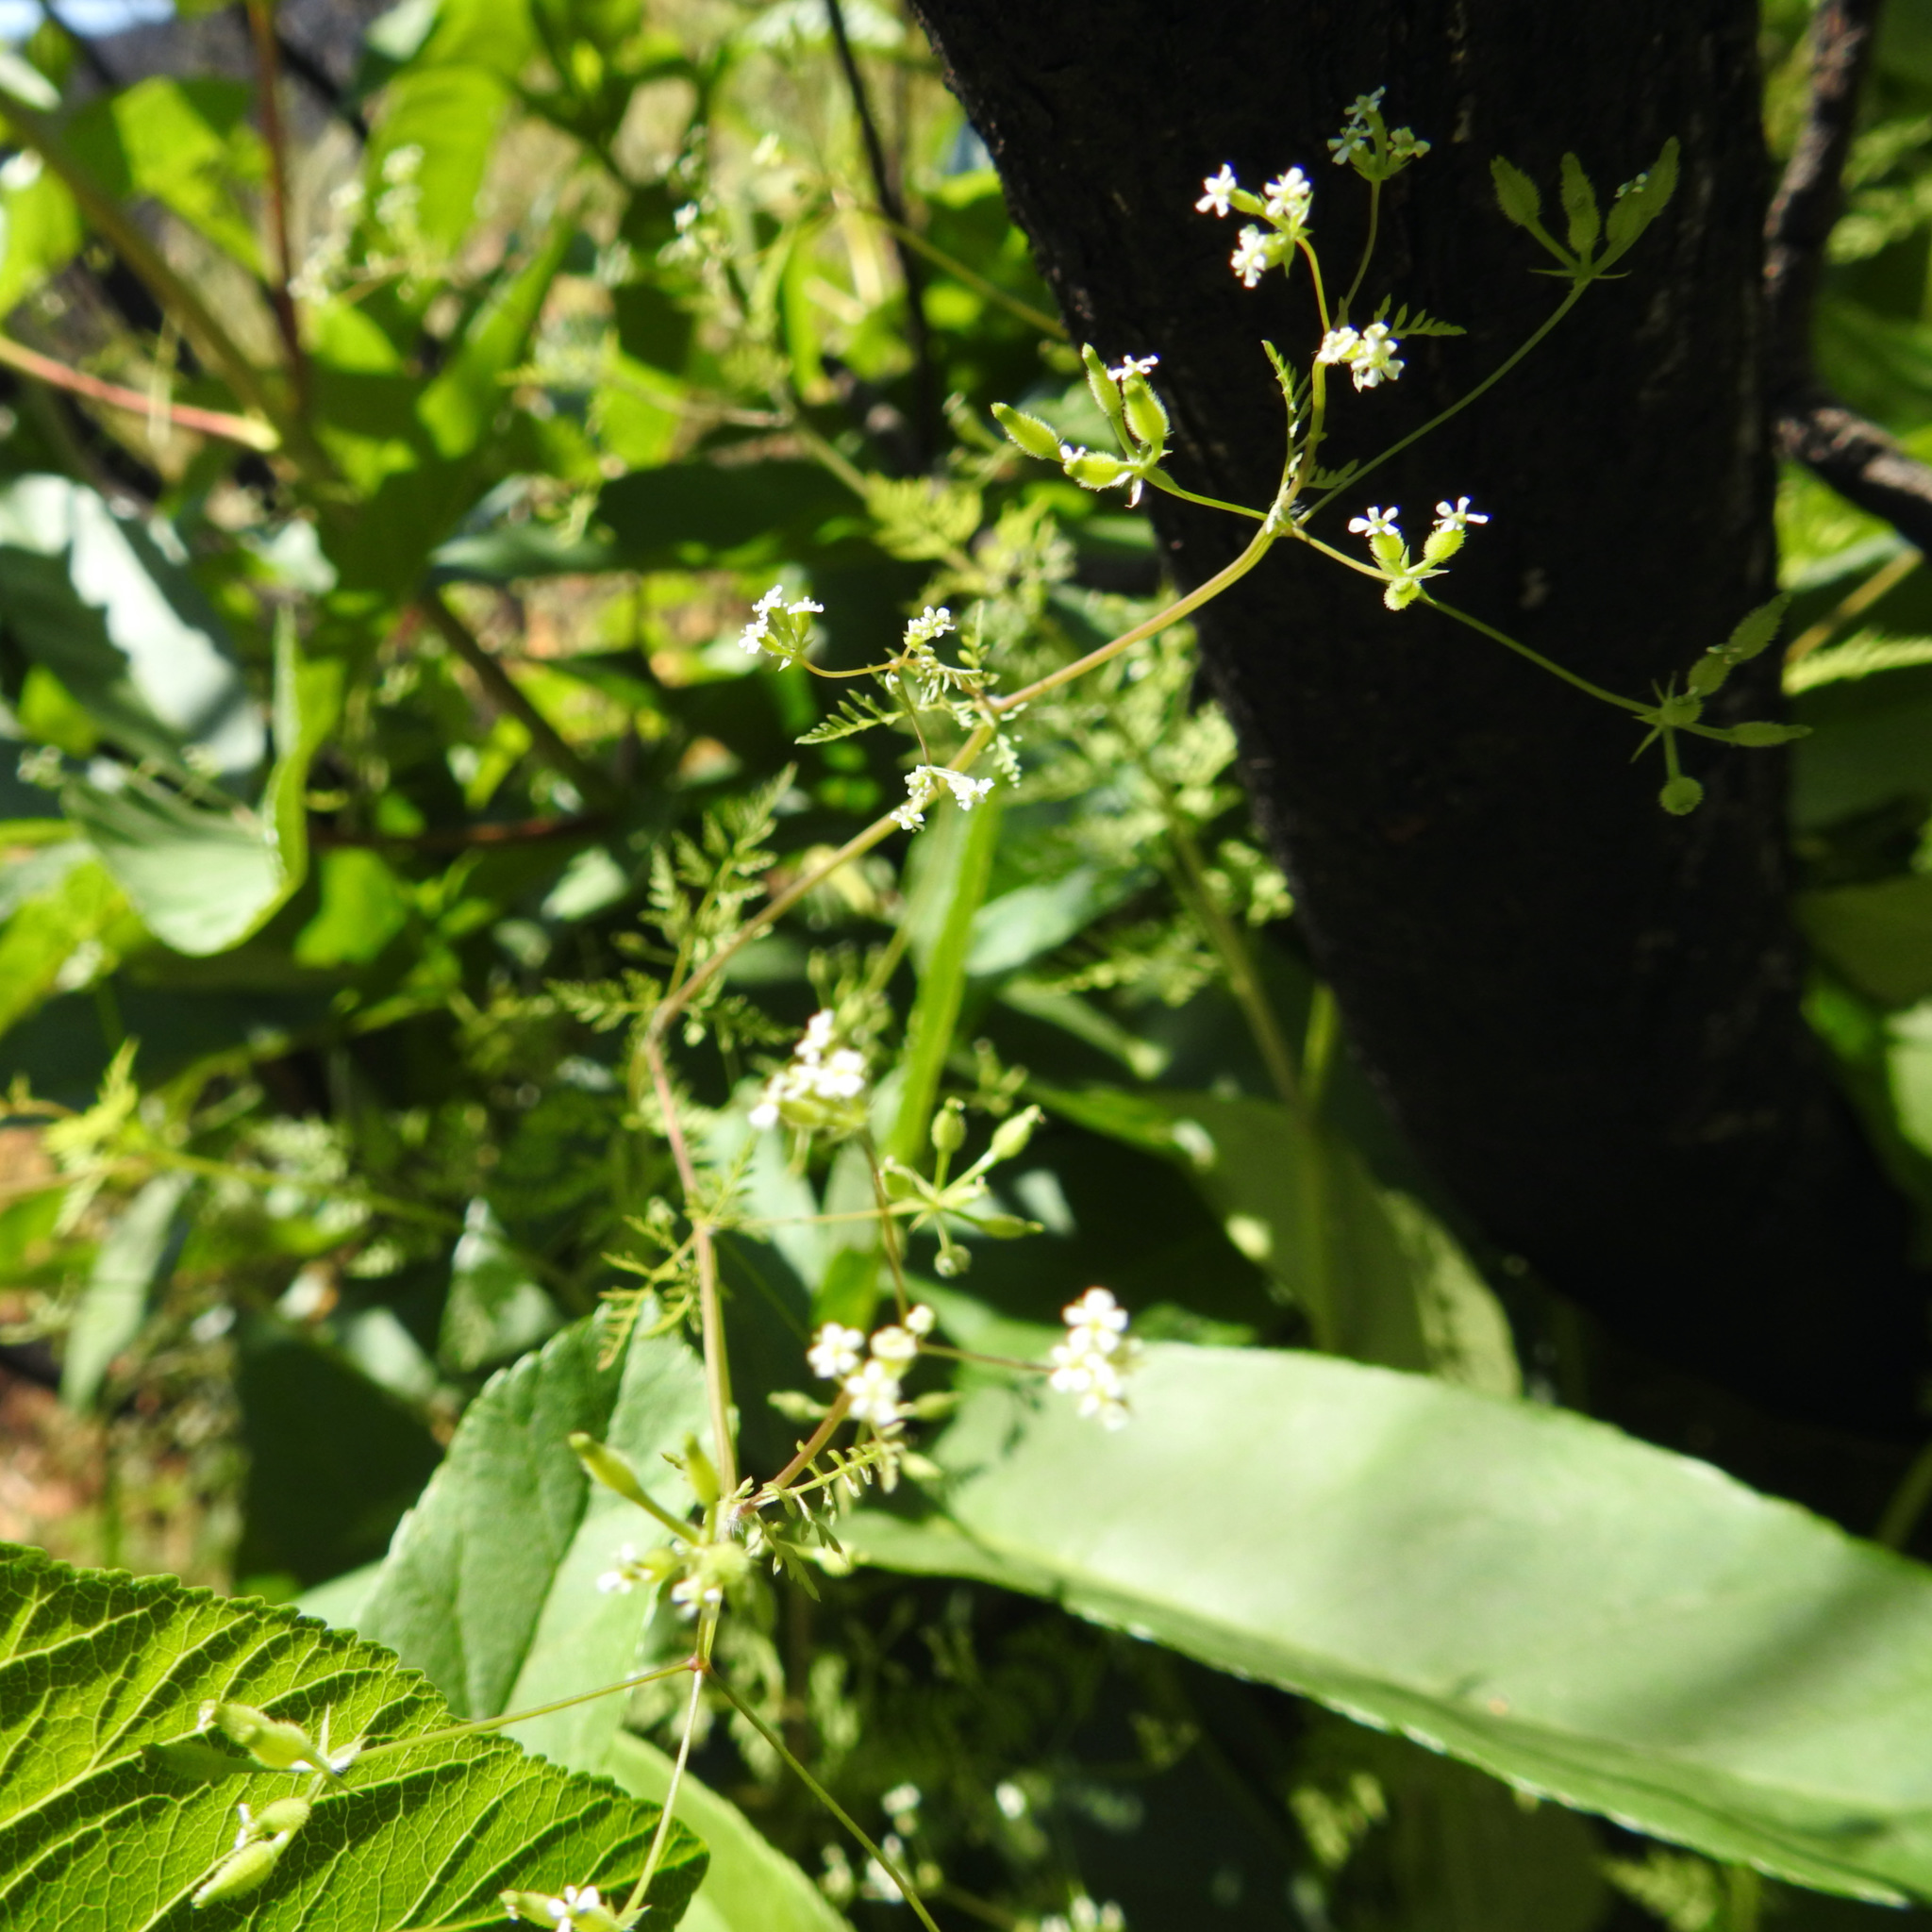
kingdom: Plantae
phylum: Tracheophyta
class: Magnoliopsida
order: Apiales
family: Apiaceae
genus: Anthriscus
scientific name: Anthriscus caucalis
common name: Bur chervil
